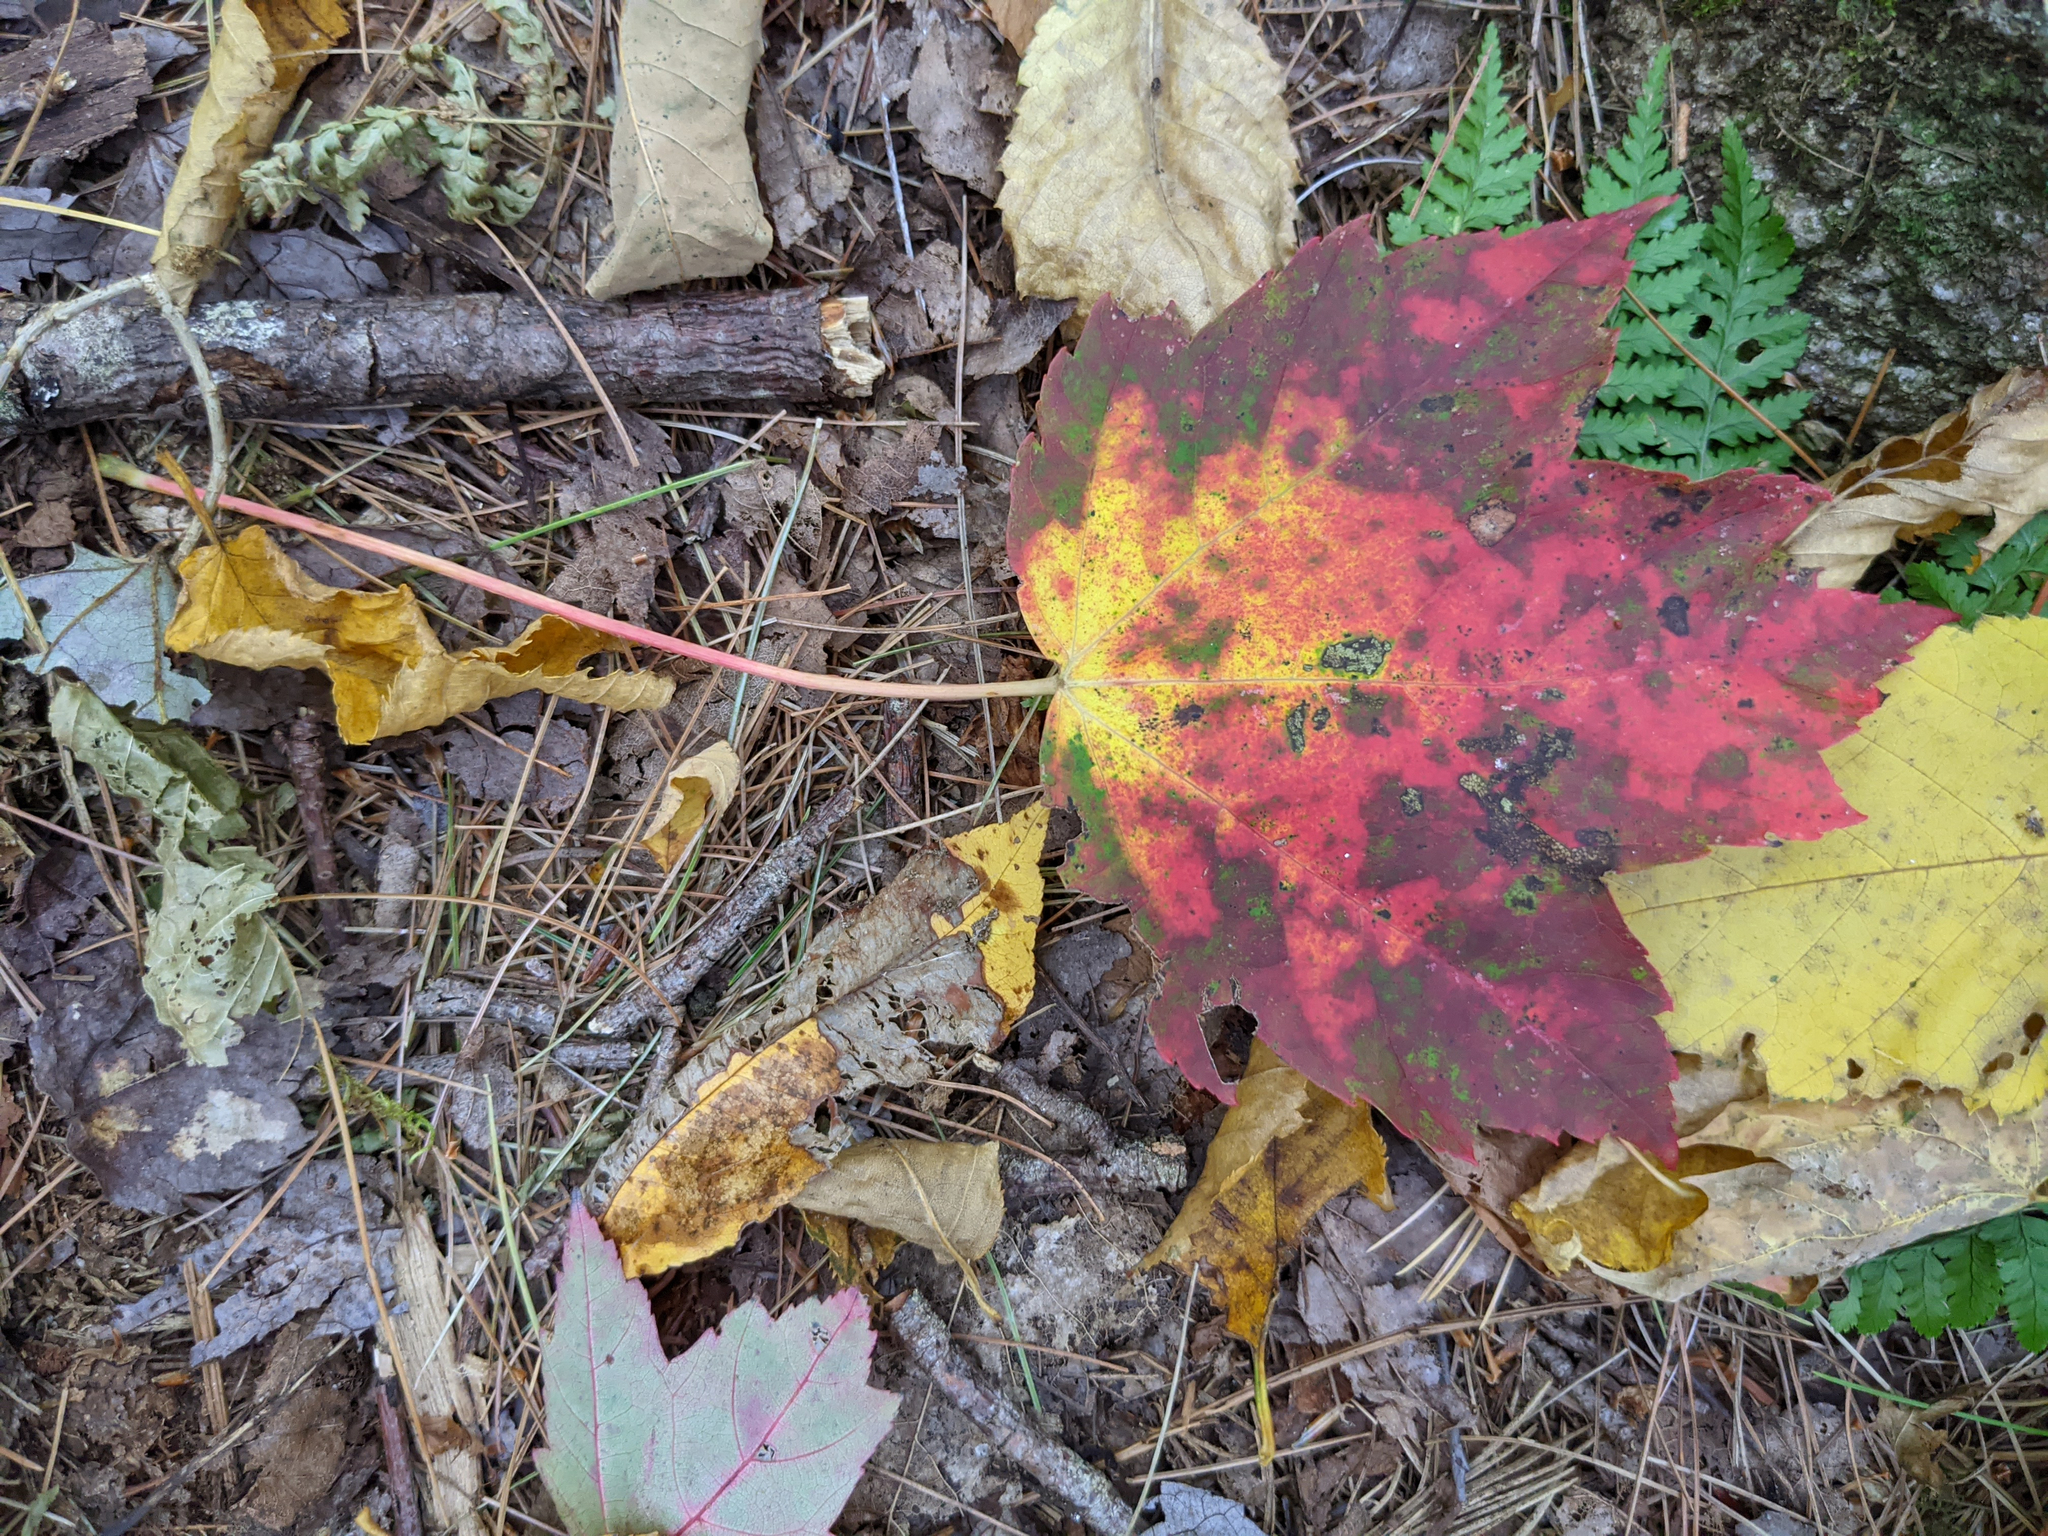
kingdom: Plantae
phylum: Tracheophyta
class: Magnoliopsida
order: Sapindales
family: Sapindaceae
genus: Acer
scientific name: Acer rubrum
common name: Red maple
